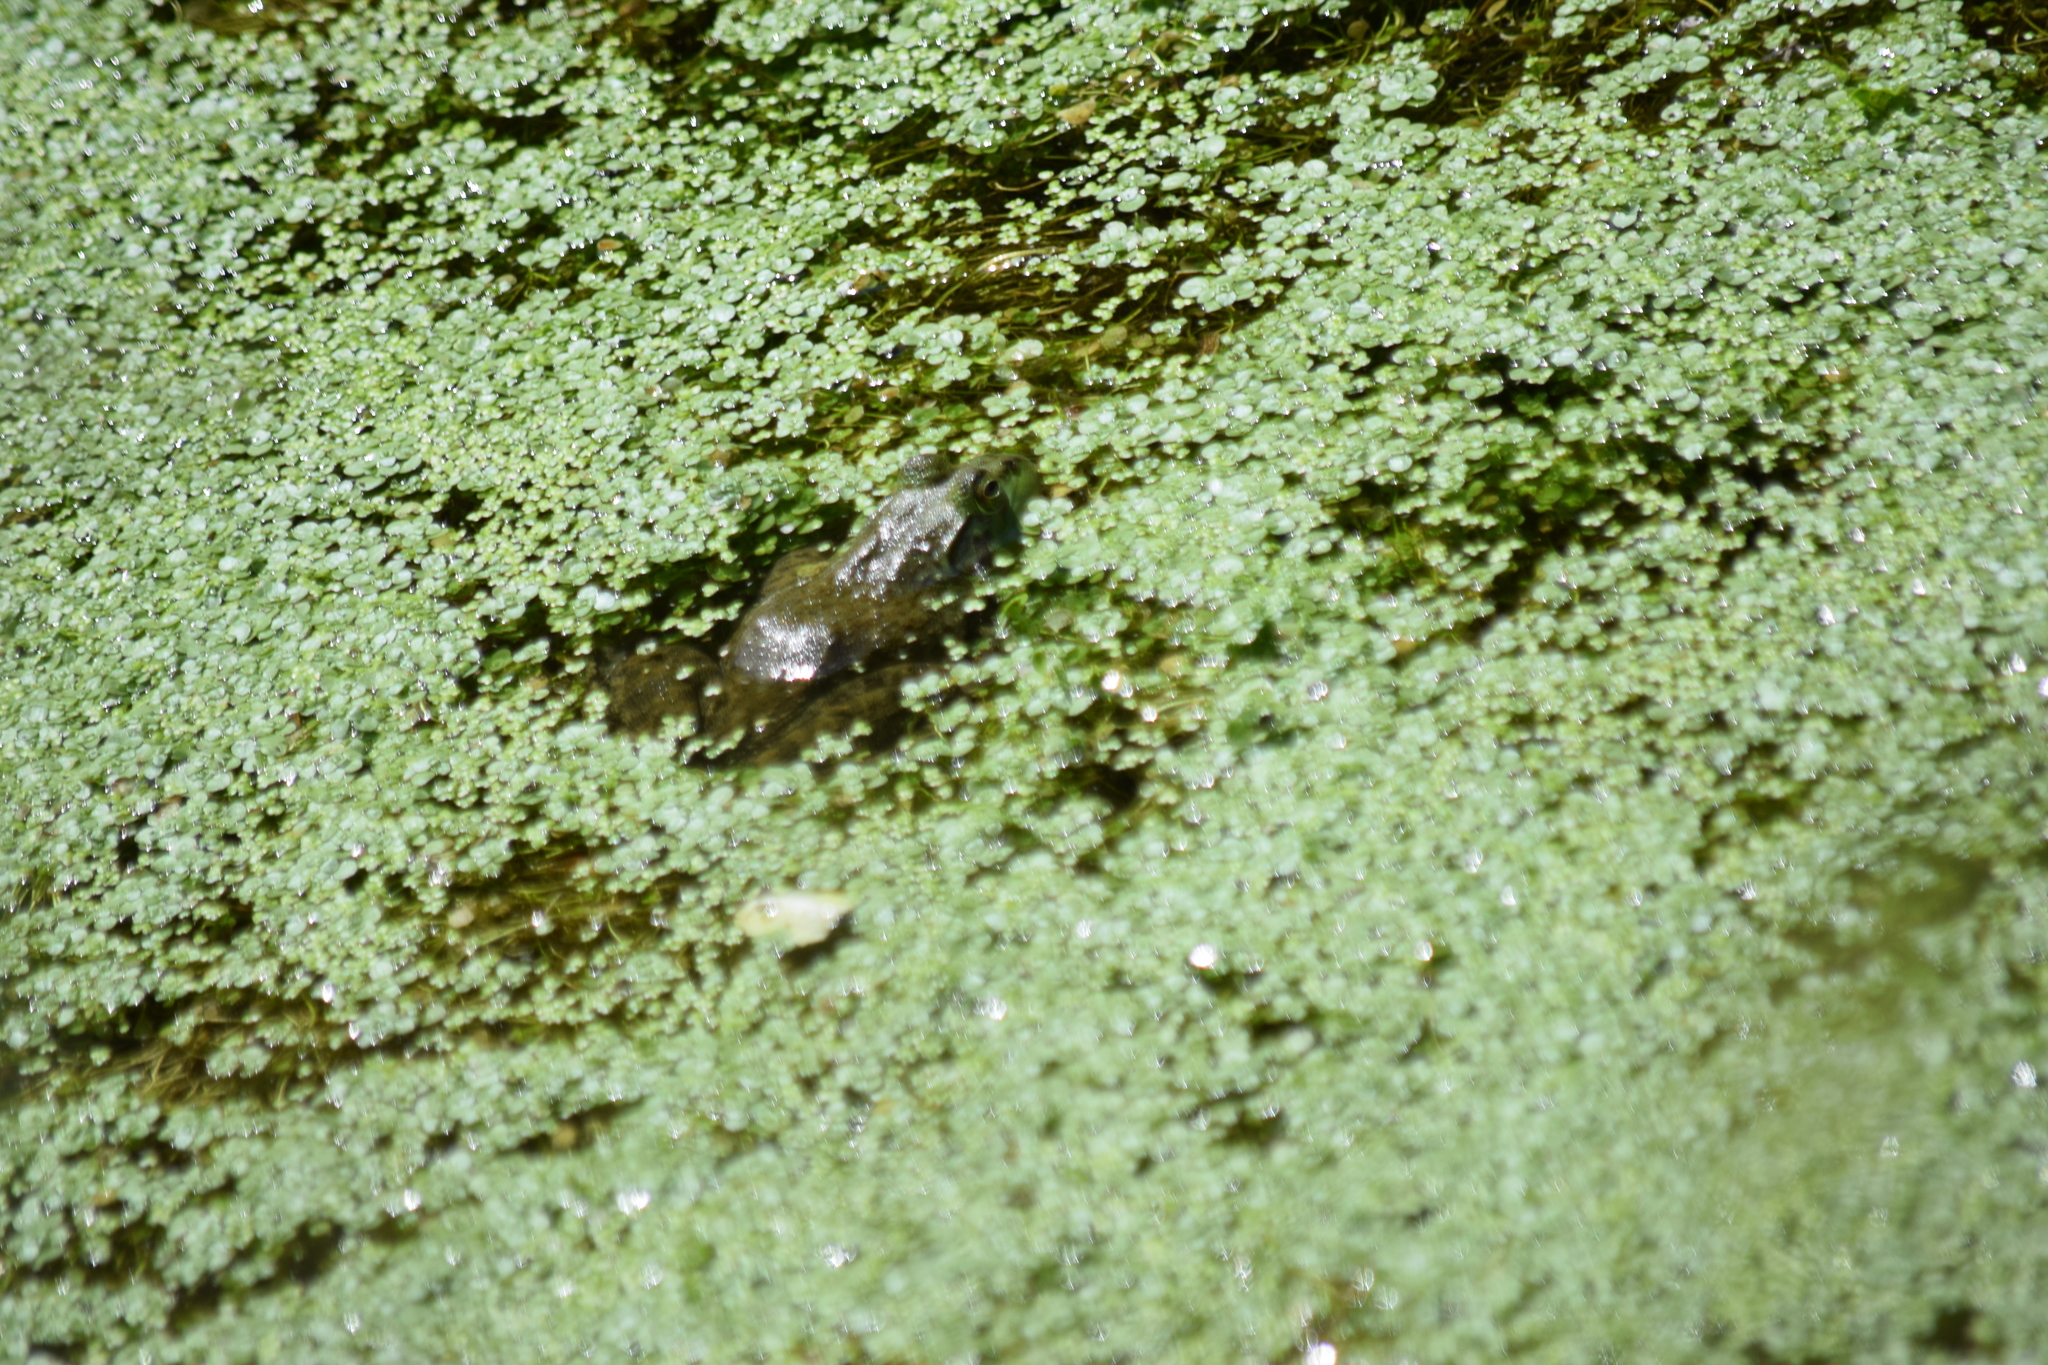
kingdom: Animalia
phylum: Chordata
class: Amphibia
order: Anura
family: Ranidae
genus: Lithobates
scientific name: Lithobates catesbeianus
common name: American bullfrog
